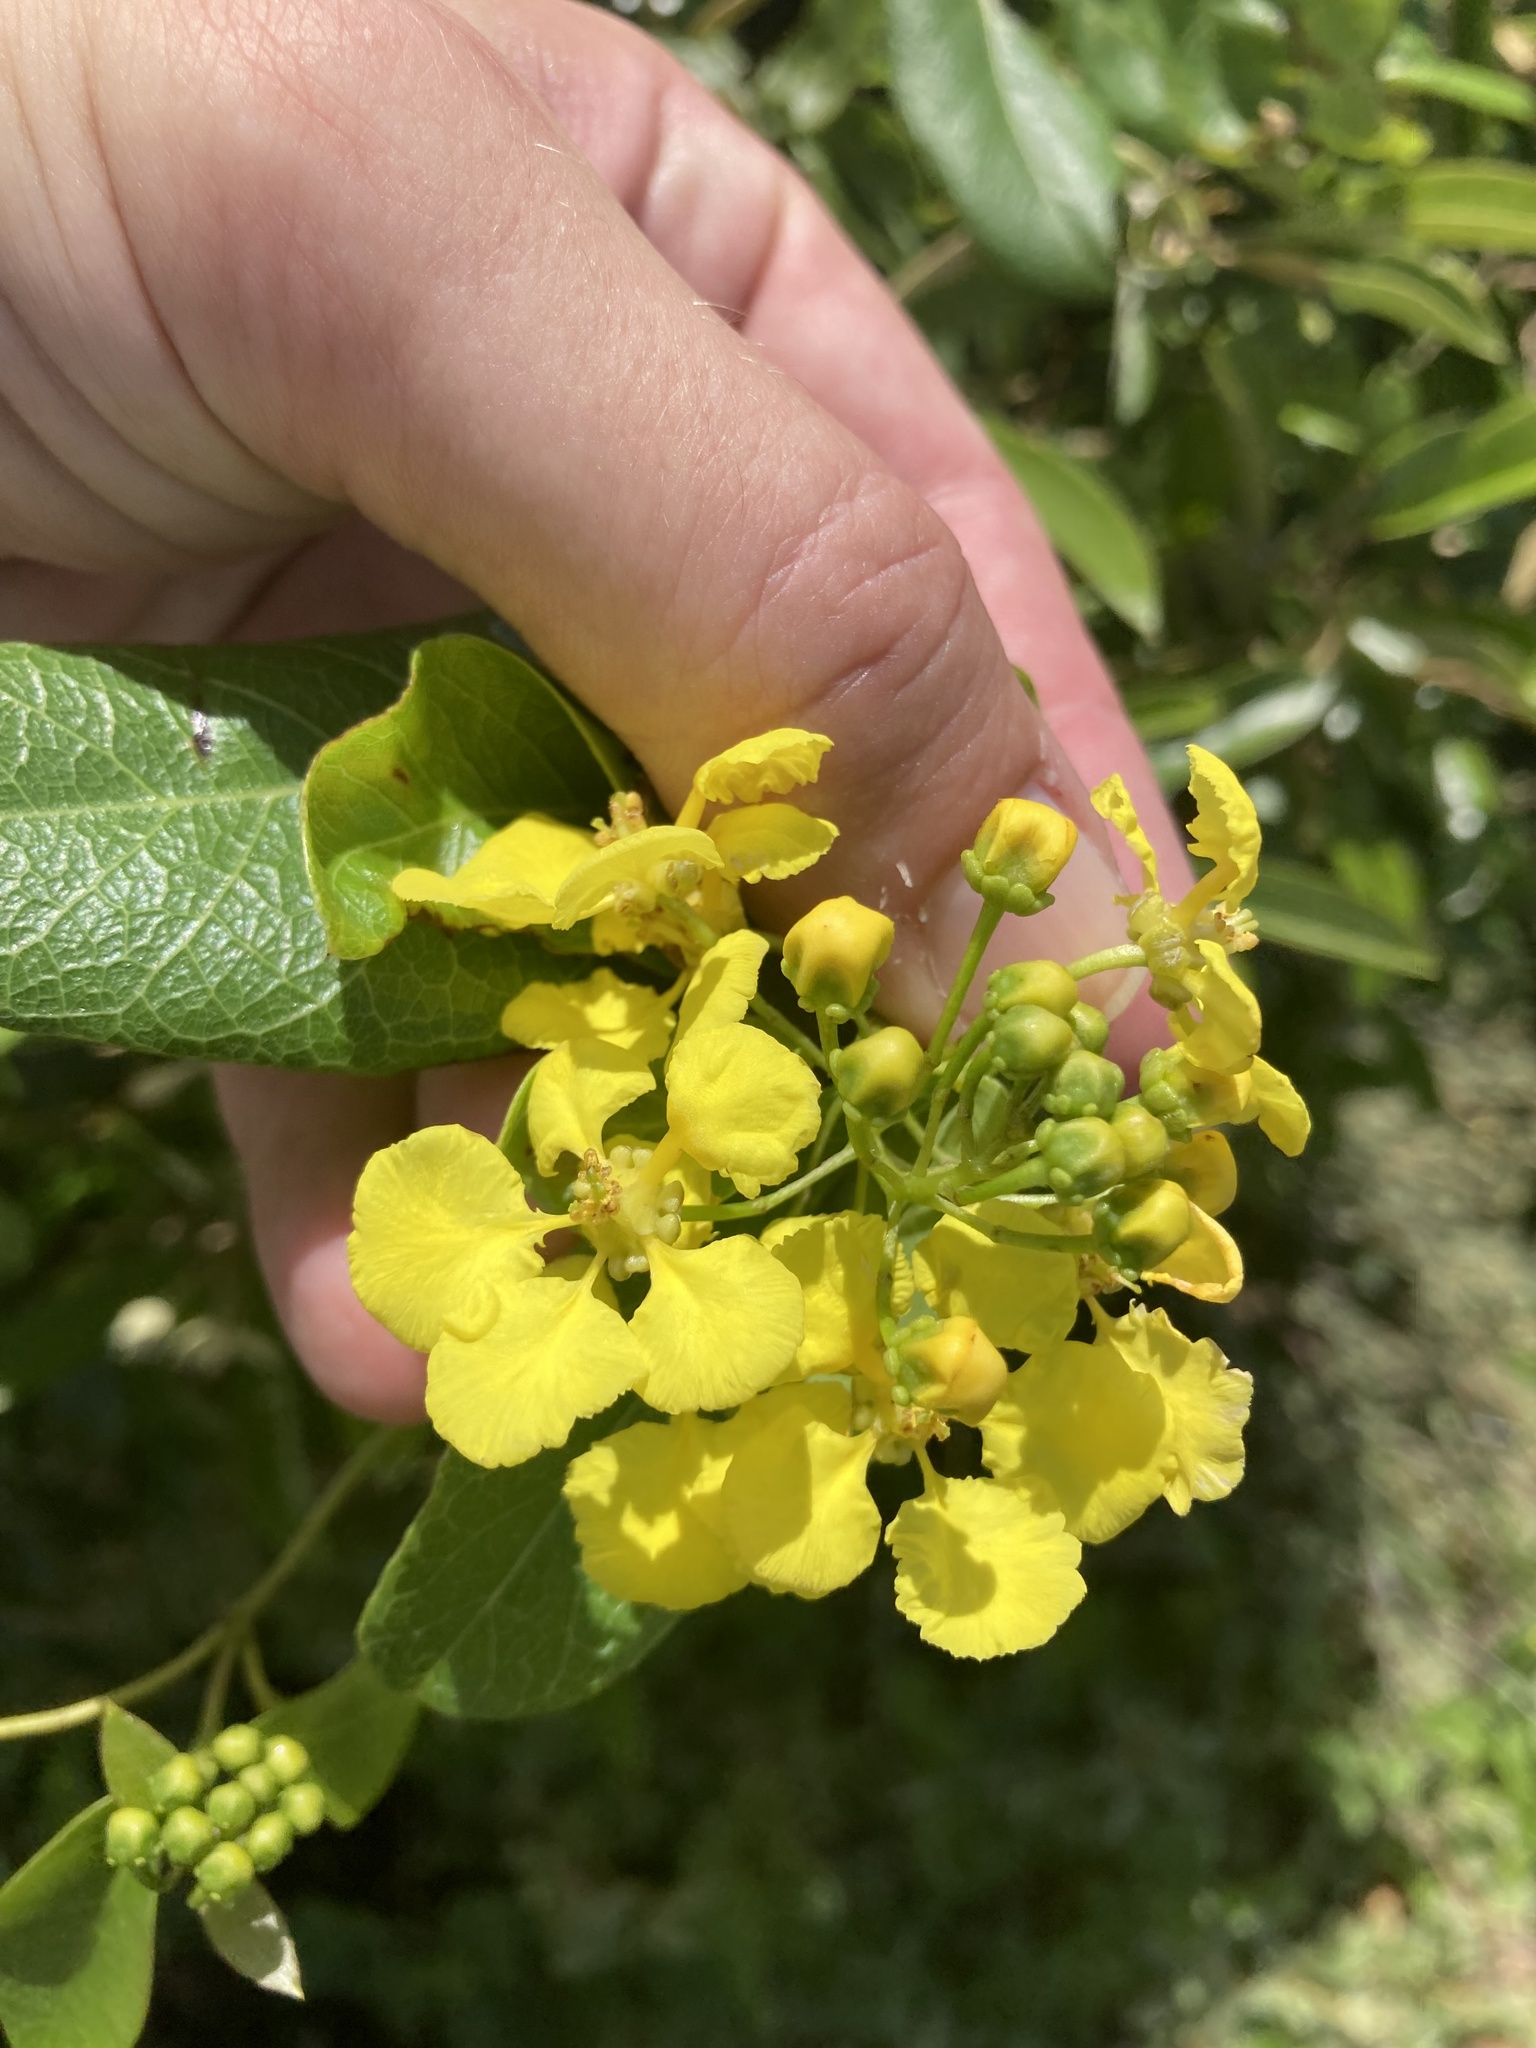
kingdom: Plantae
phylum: Tracheophyta
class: Magnoliopsida
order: Malpighiales
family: Malpighiaceae
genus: Stigmaphyllon
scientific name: Stigmaphyllon emarginatum
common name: Monarch amazonvine
